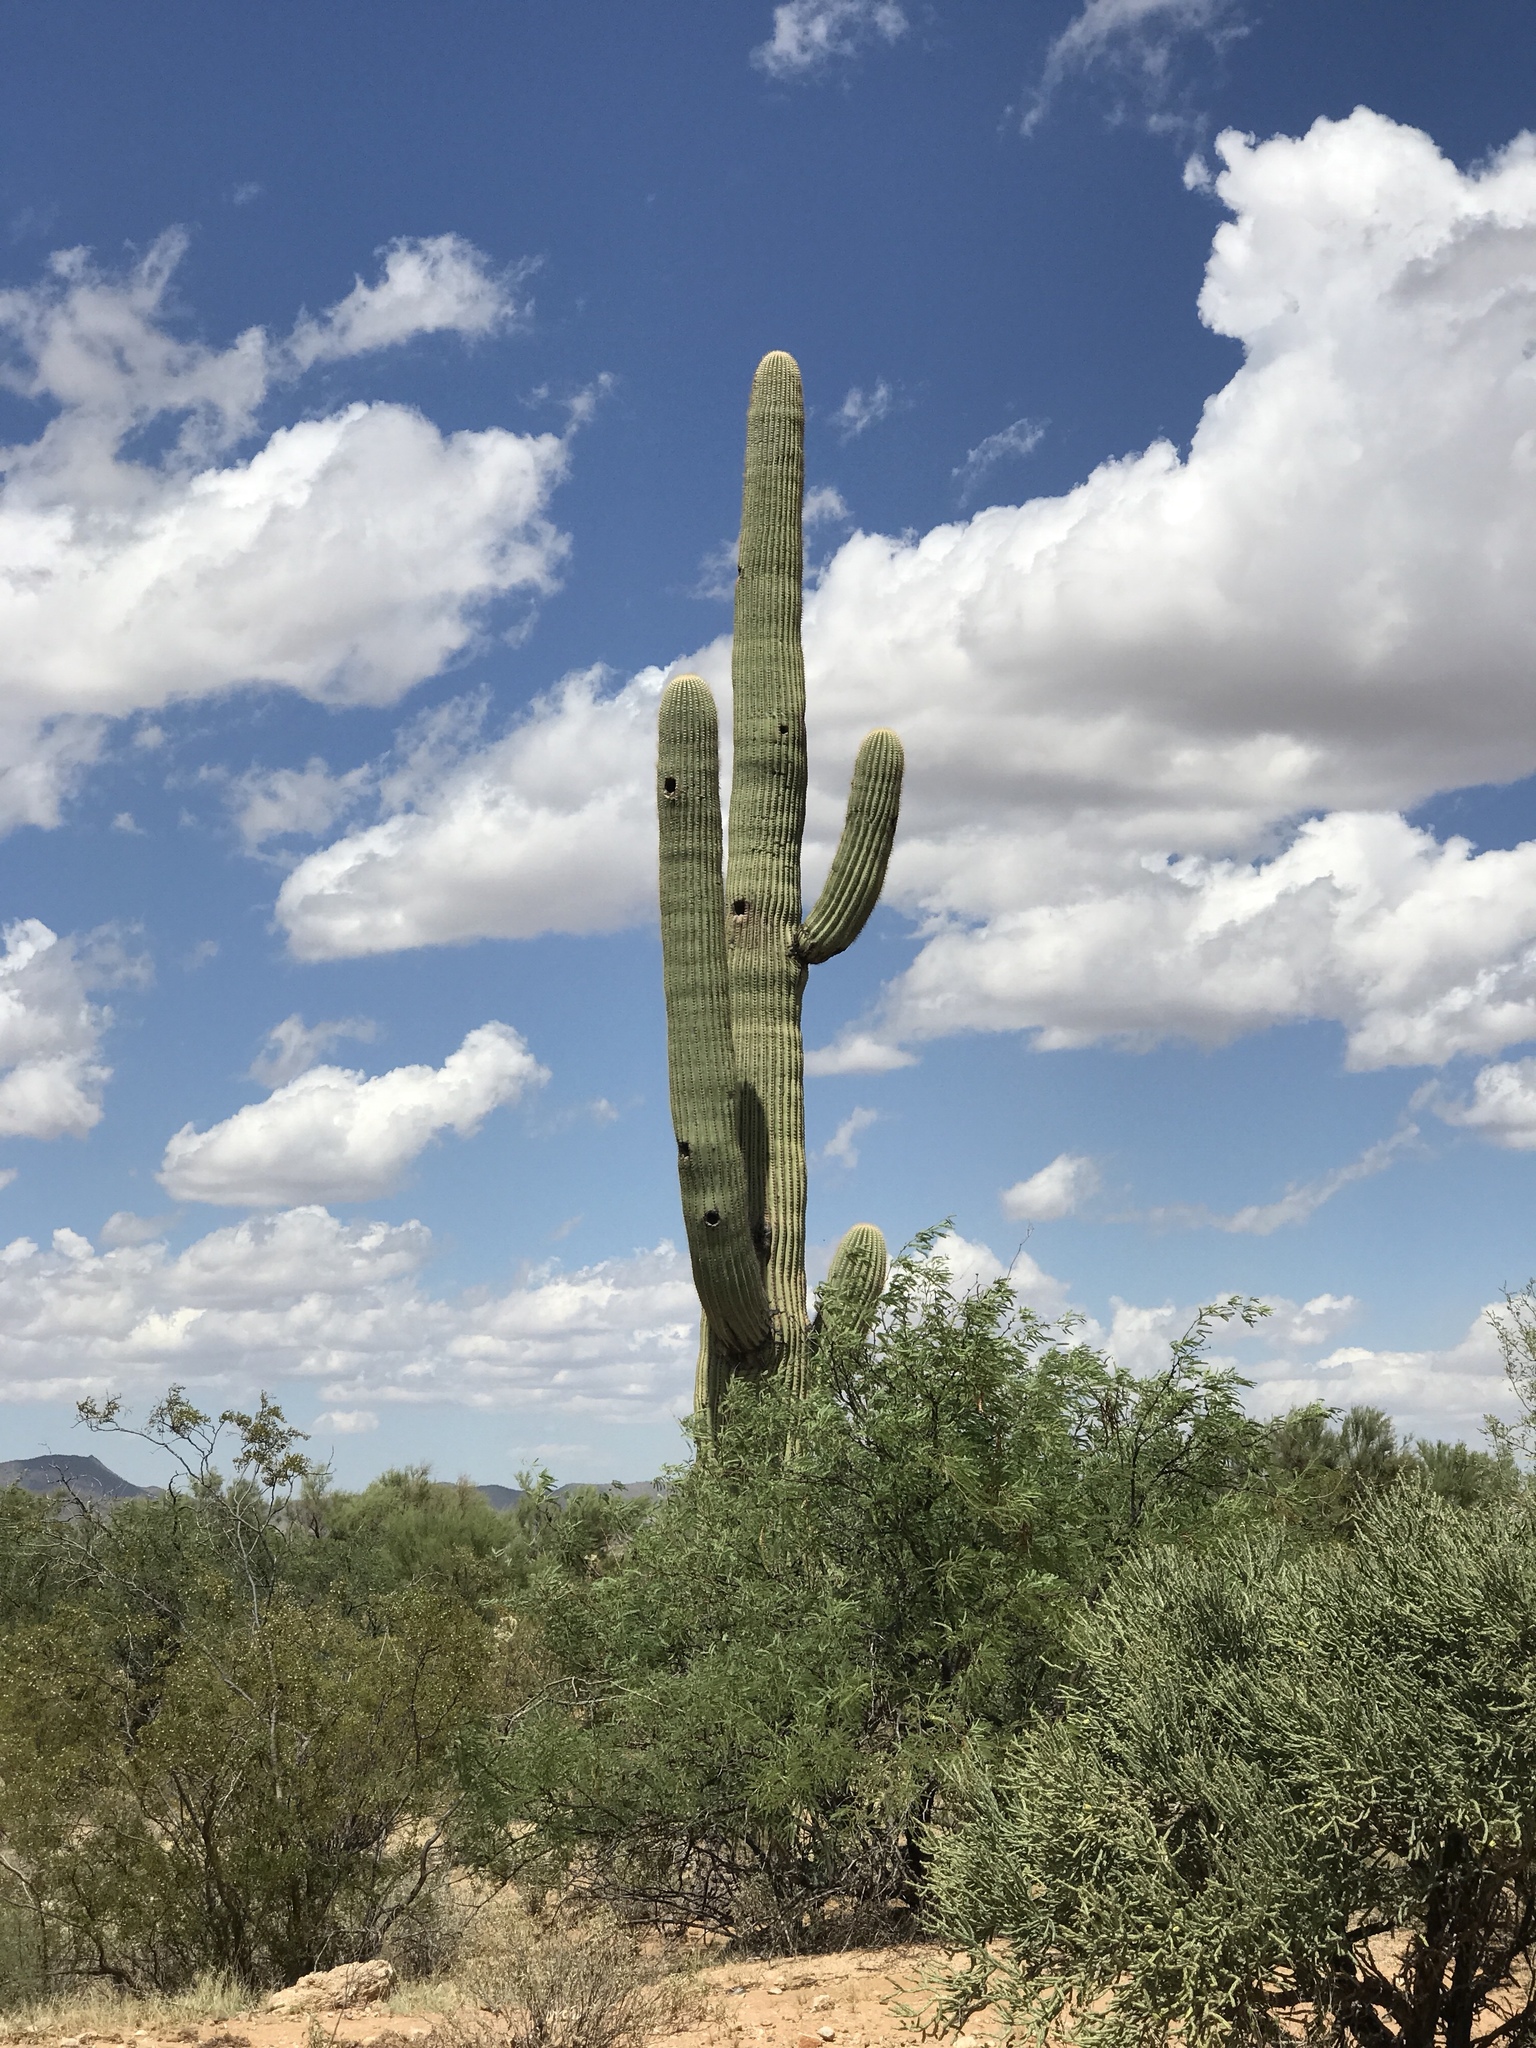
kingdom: Plantae
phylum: Tracheophyta
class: Magnoliopsida
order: Caryophyllales
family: Cactaceae
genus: Carnegiea
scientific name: Carnegiea gigantea
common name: Saguaro
